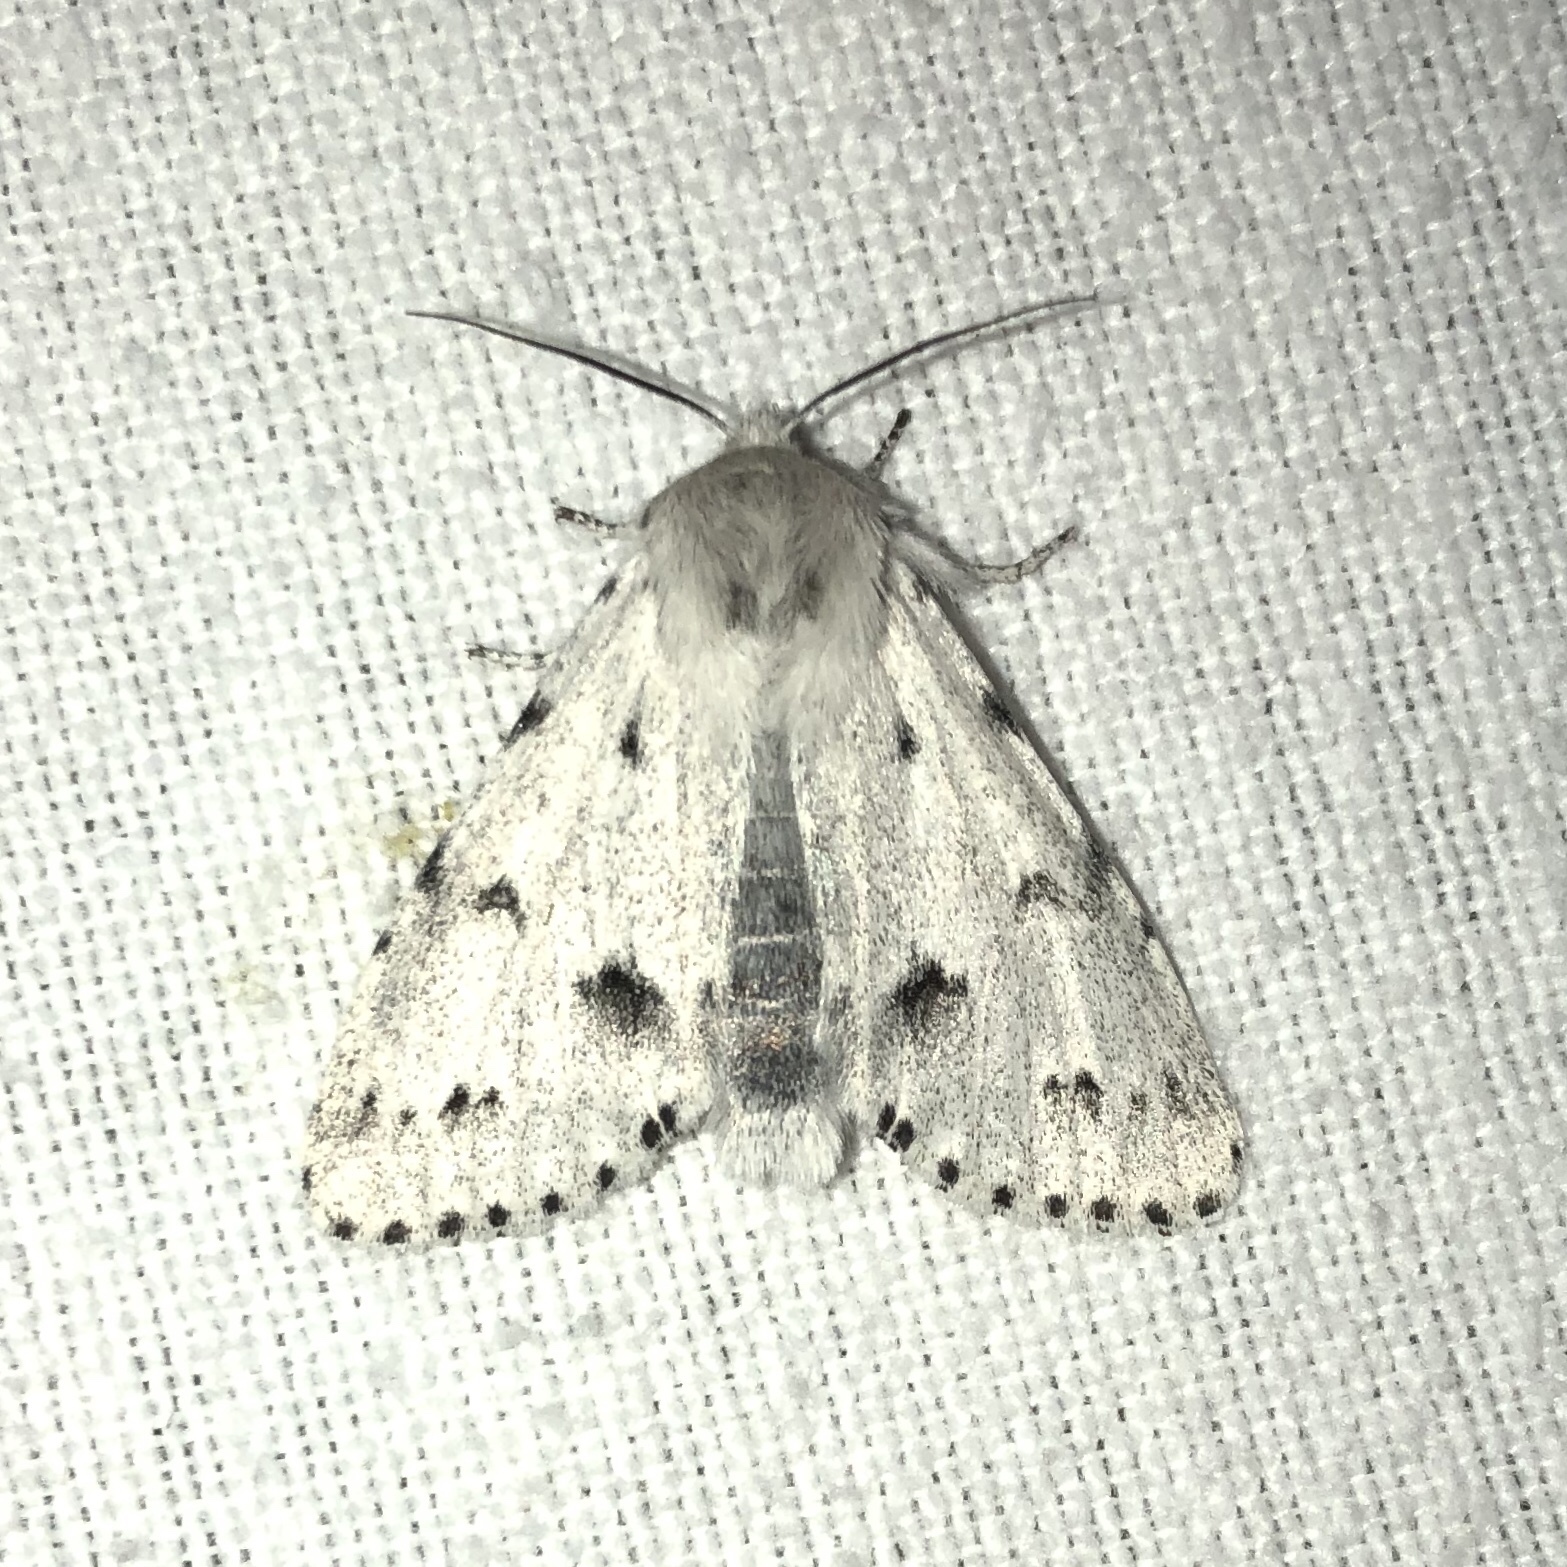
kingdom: Animalia
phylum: Arthropoda
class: Insecta
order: Lepidoptera
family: Noctuidae
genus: Acronicta
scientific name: Acronicta vulpina
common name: Miller dagger
